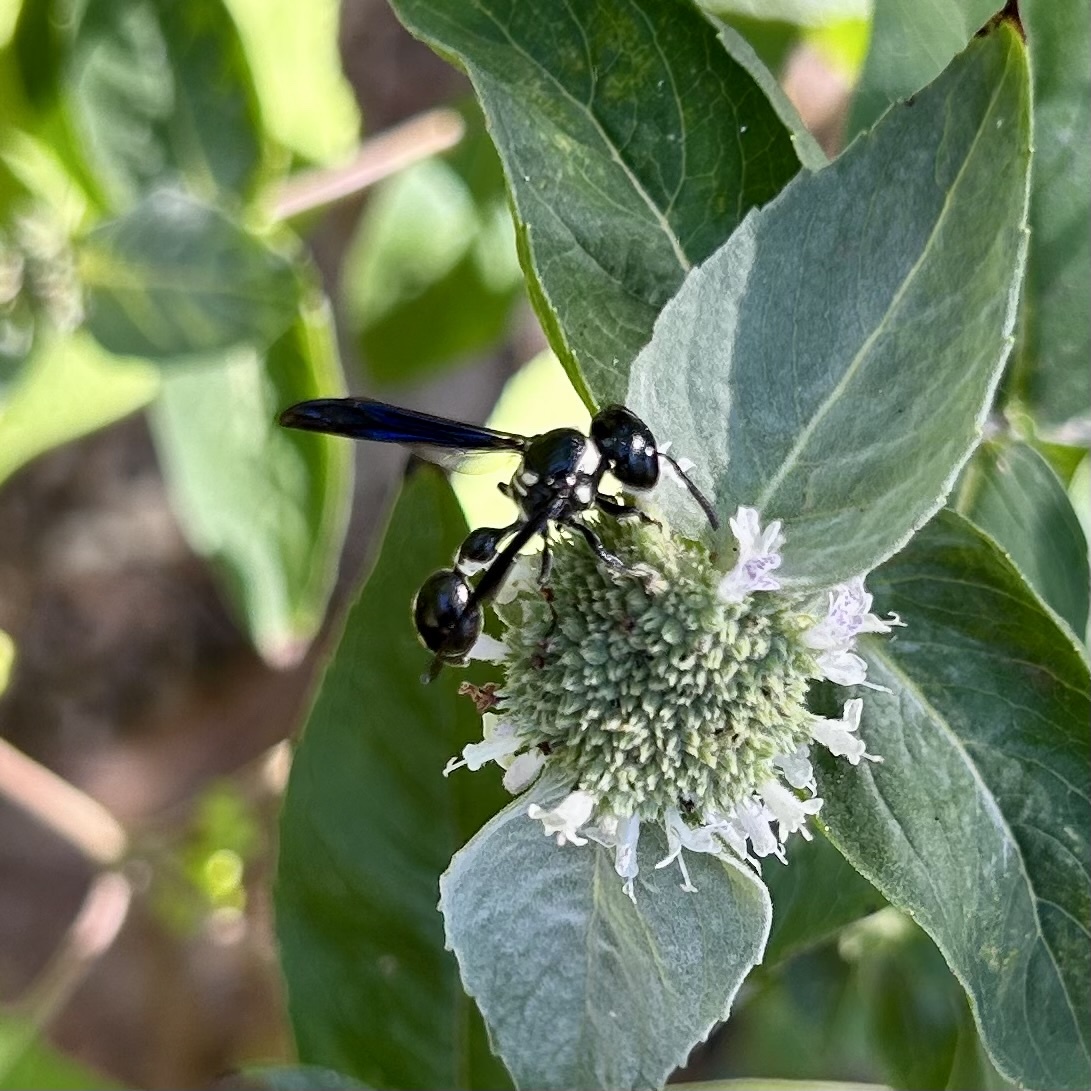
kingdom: Animalia
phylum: Arthropoda
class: Insecta
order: Hymenoptera
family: Eumenidae
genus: Zethus
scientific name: Zethus spinipes
